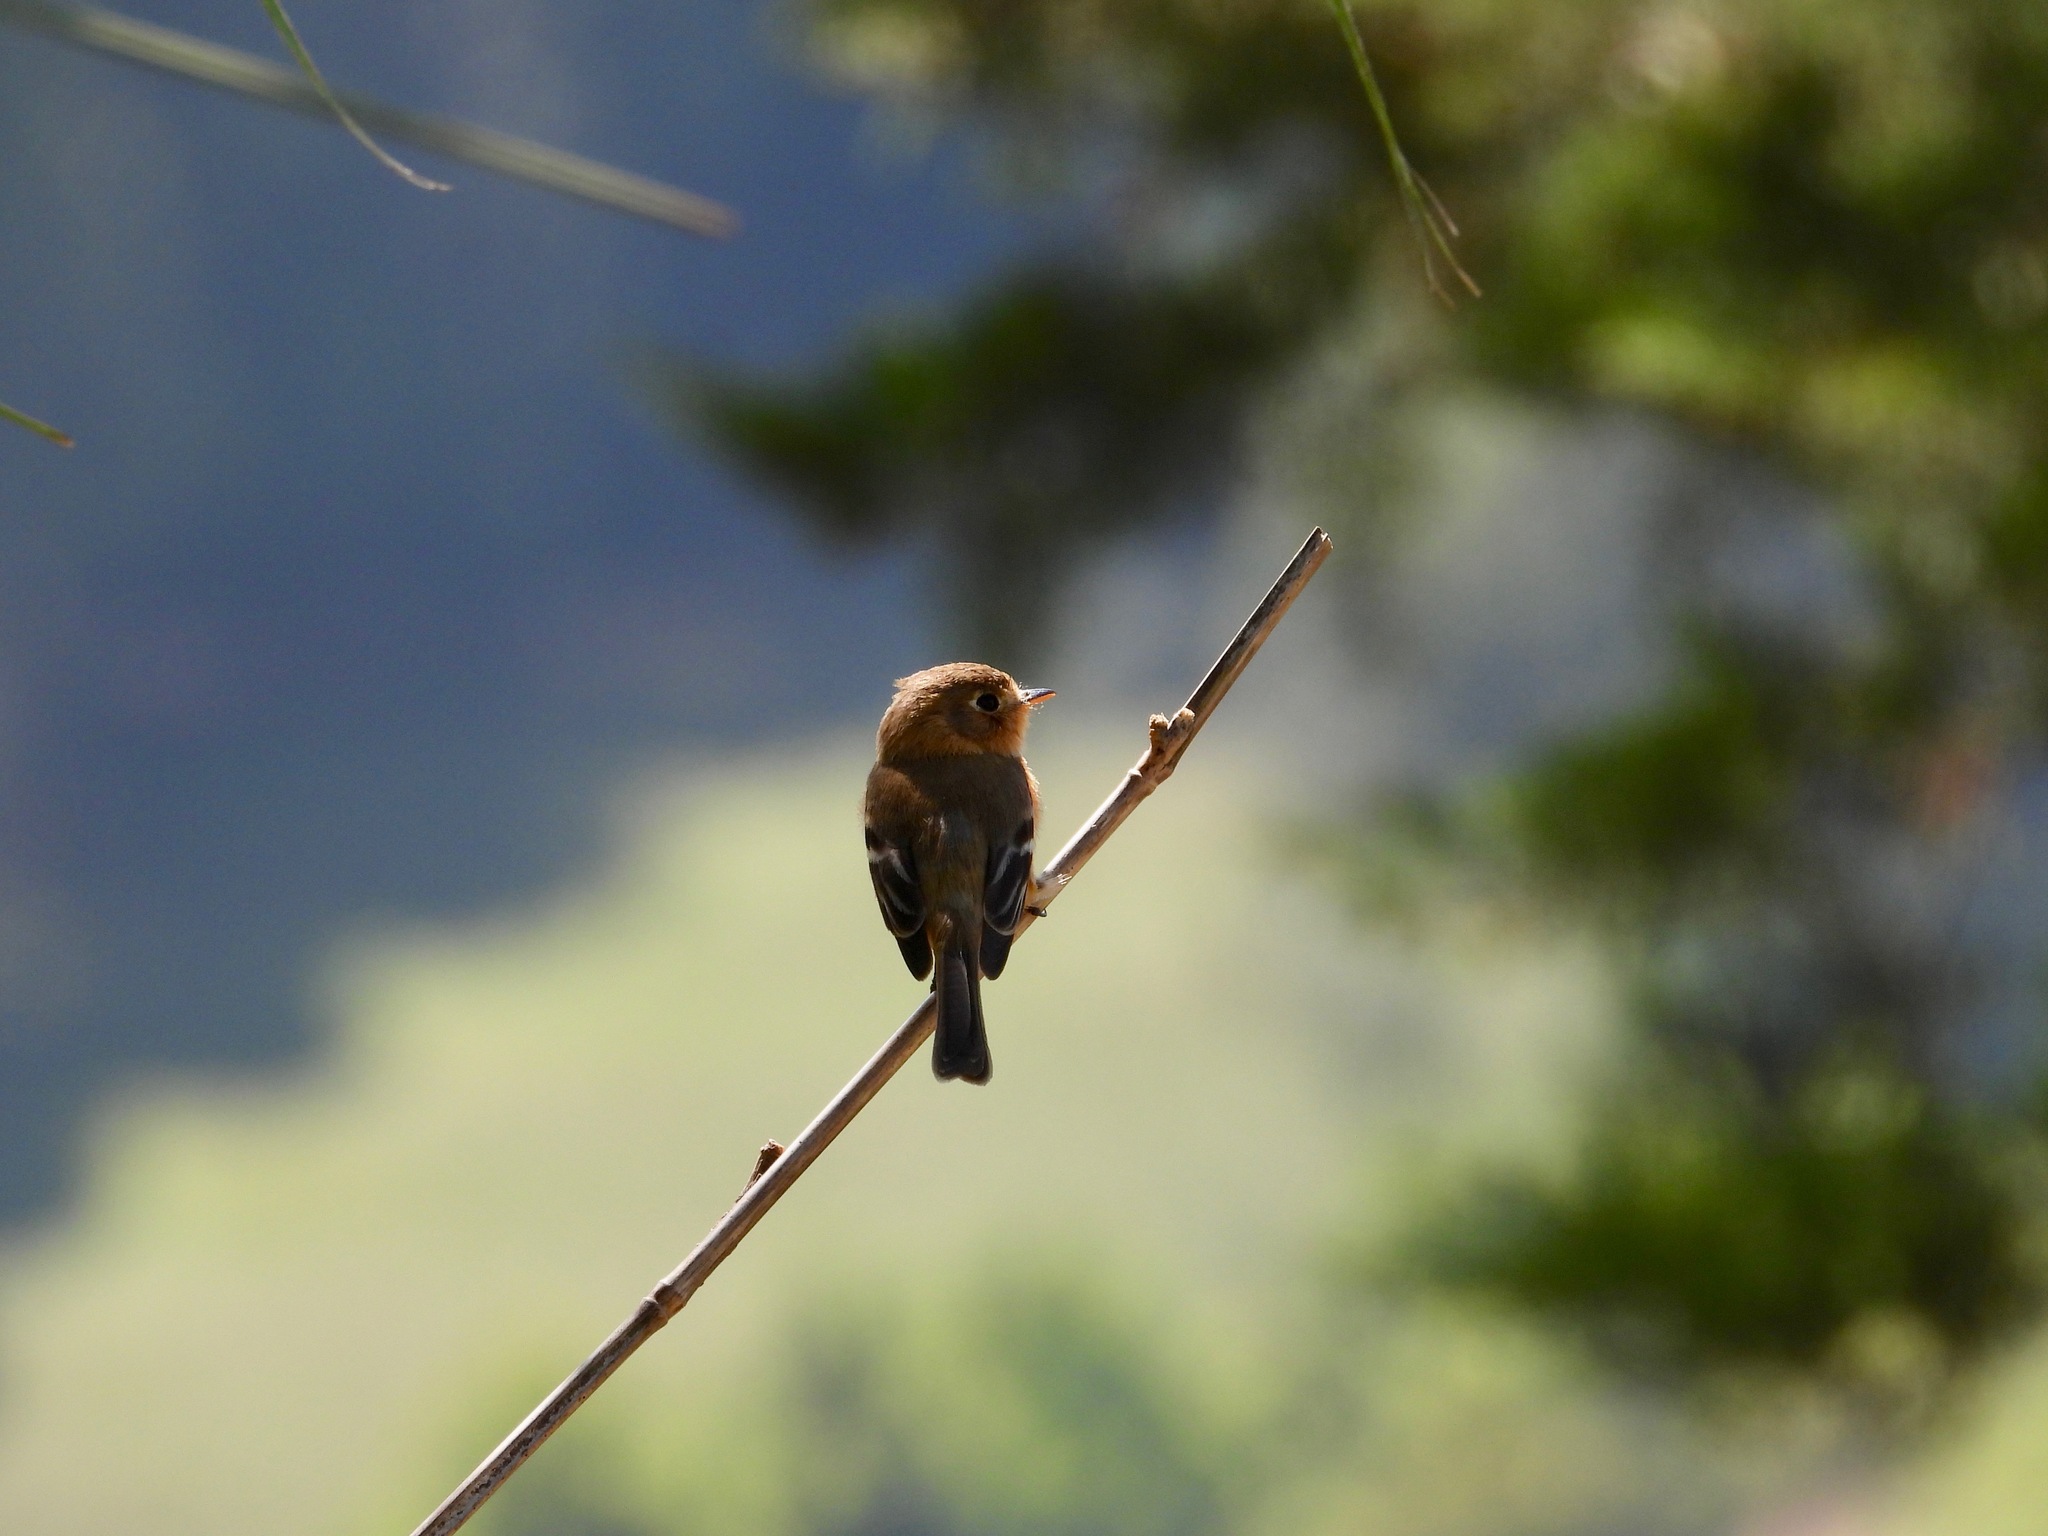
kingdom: Animalia
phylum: Chordata
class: Aves
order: Passeriformes
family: Tyrannidae
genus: Empidonax
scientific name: Empidonax fulvifrons
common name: Buff-breasted flycatcher
